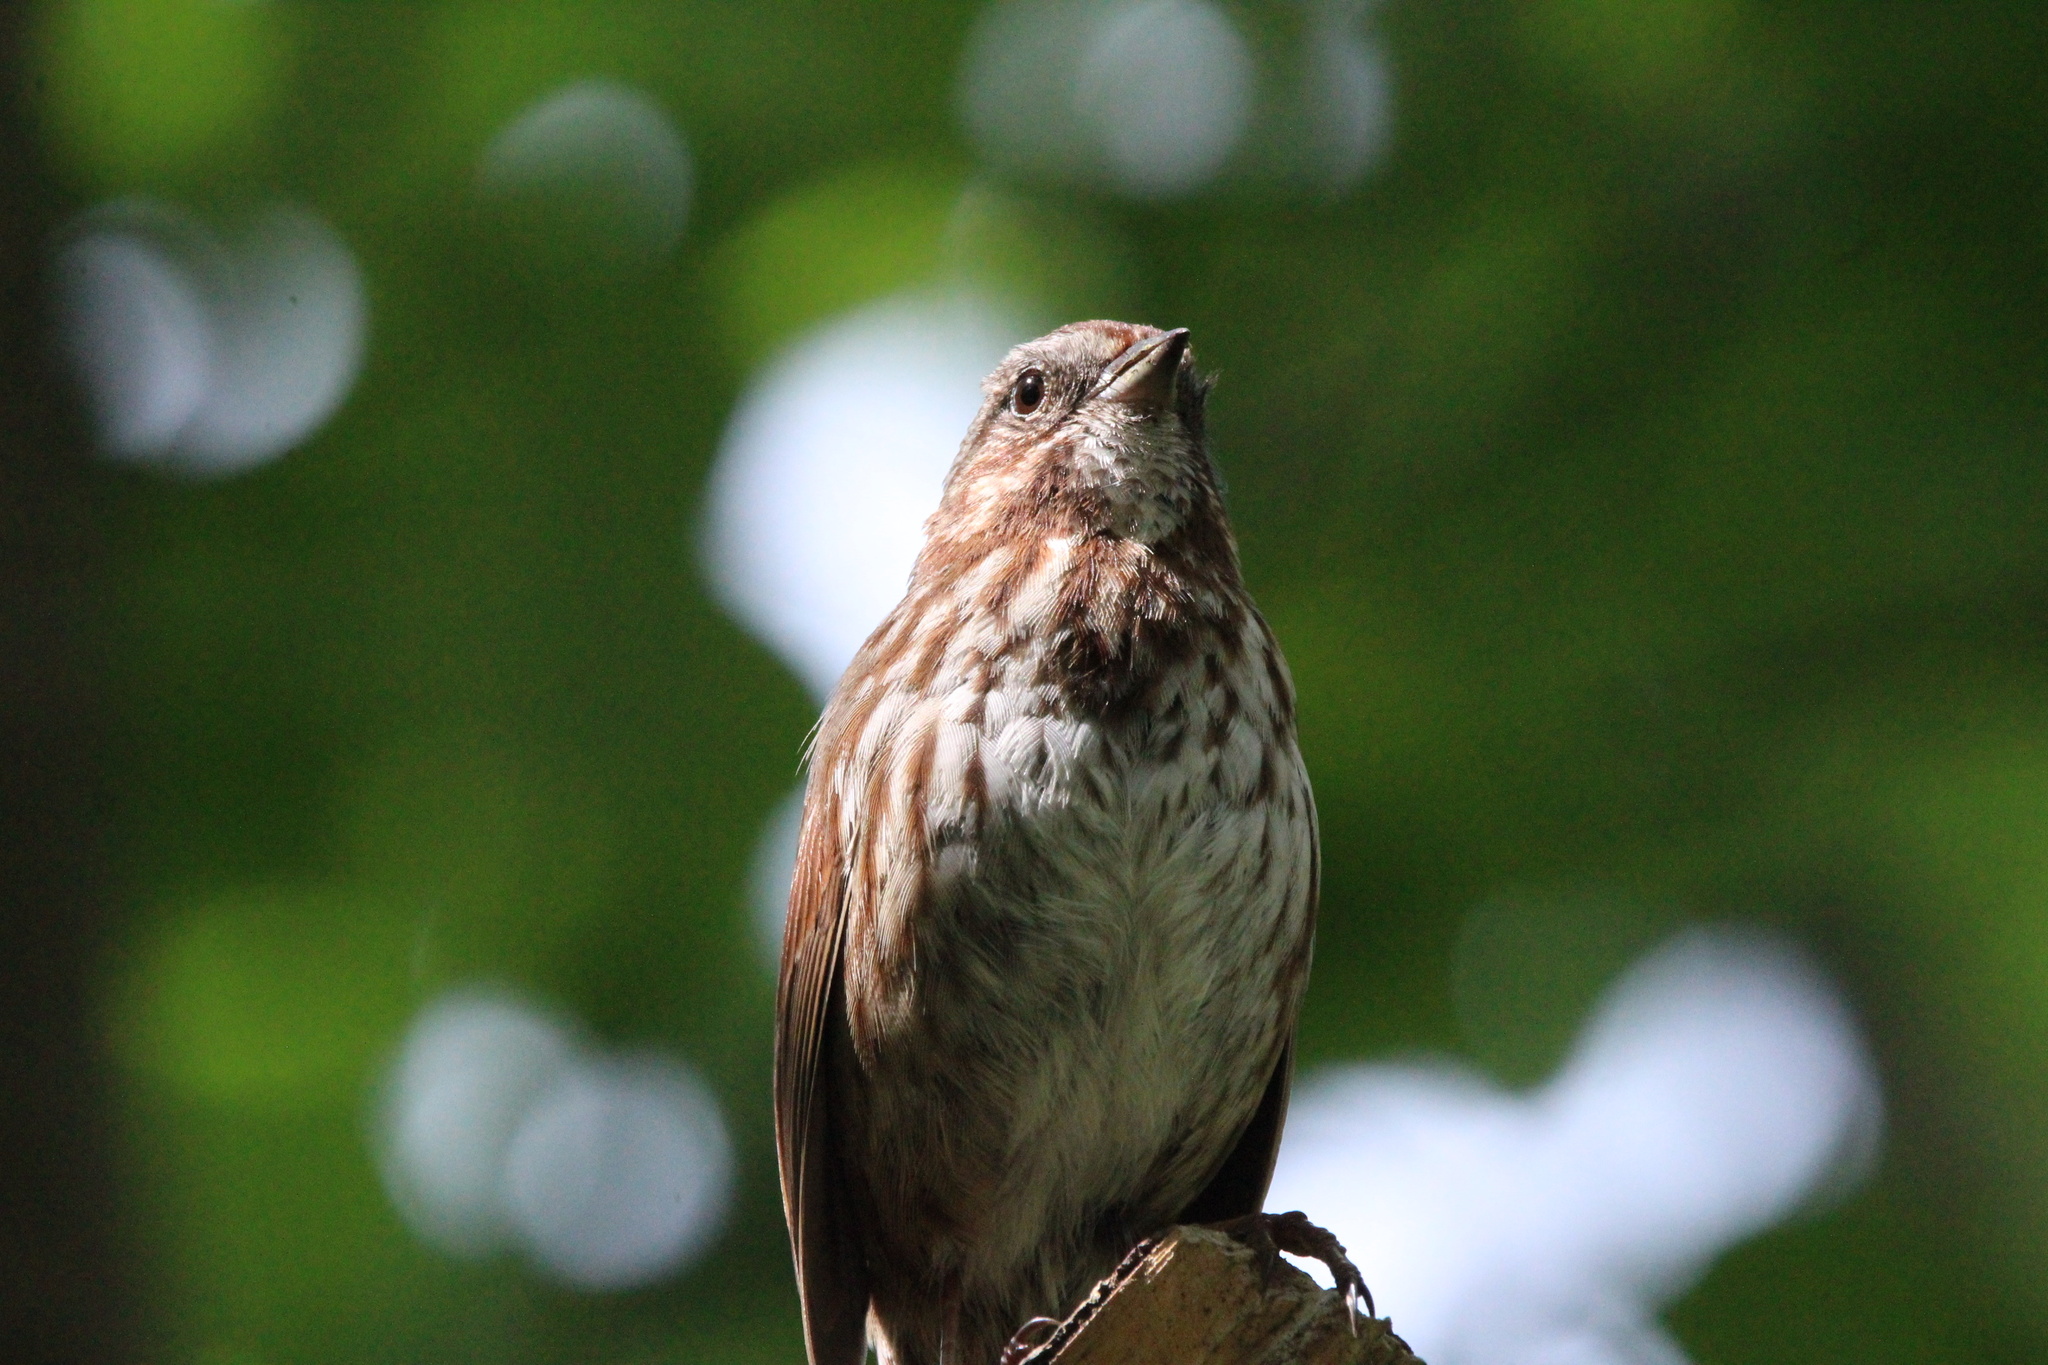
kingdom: Animalia
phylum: Chordata
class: Aves
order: Passeriformes
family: Passerellidae
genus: Melospiza
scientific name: Melospiza melodia
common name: Song sparrow
